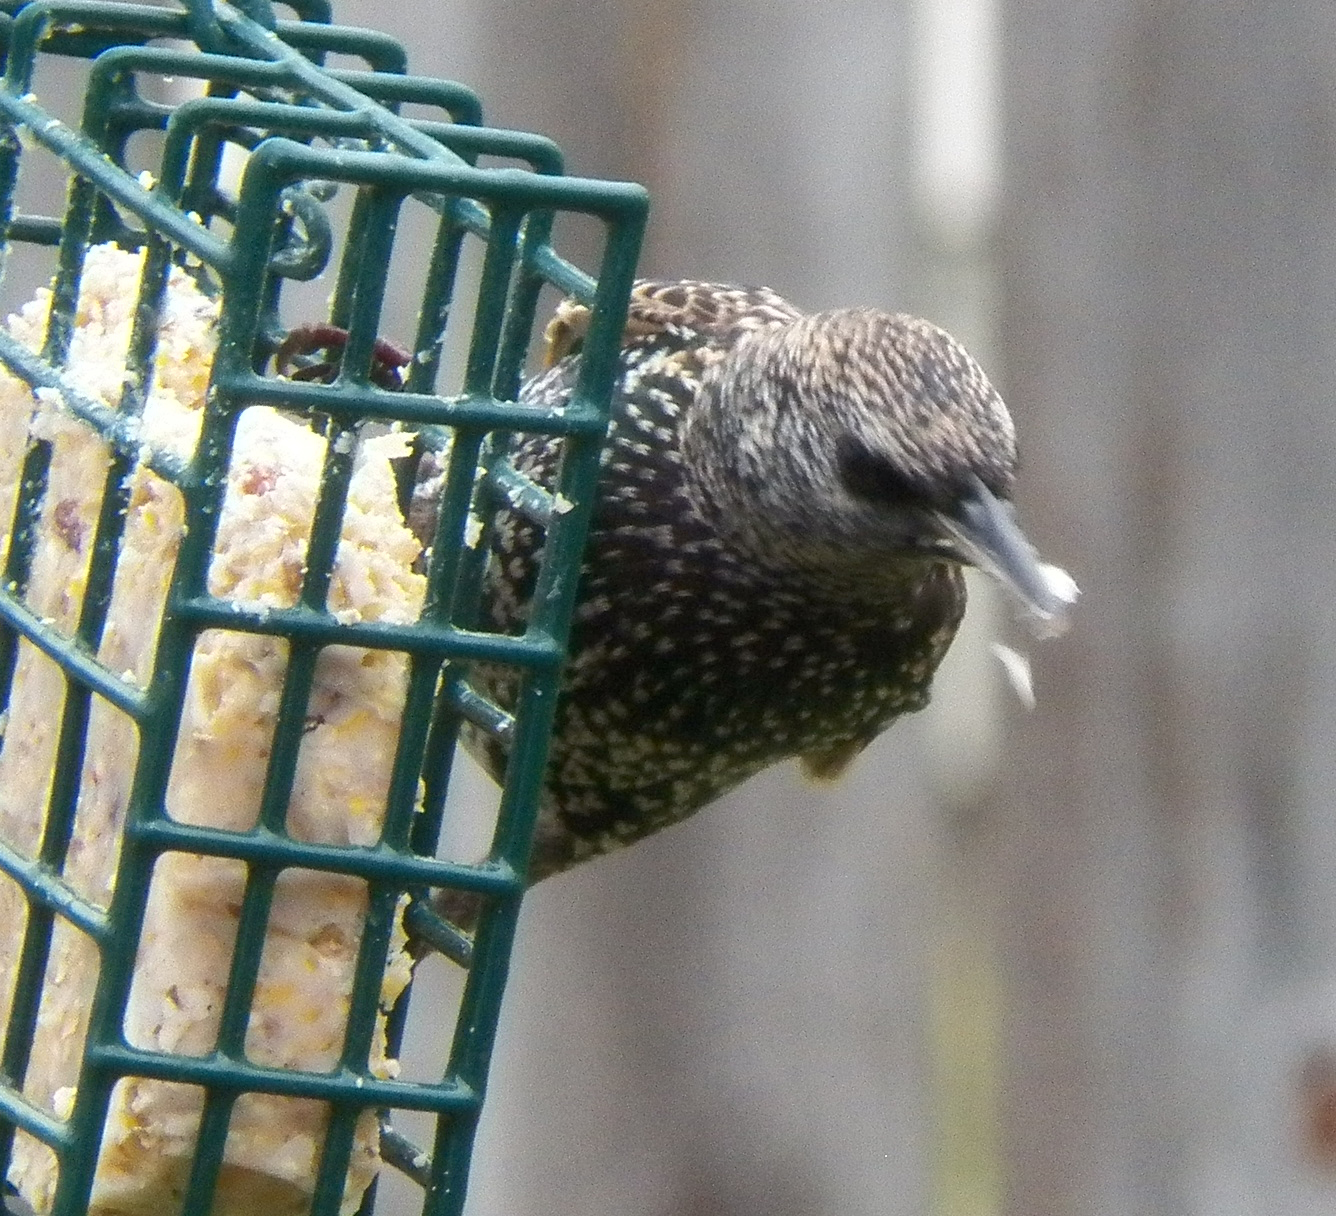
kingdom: Animalia
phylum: Chordata
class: Aves
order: Passeriformes
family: Sturnidae
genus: Sturnus
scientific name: Sturnus vulgaris
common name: Common starling
